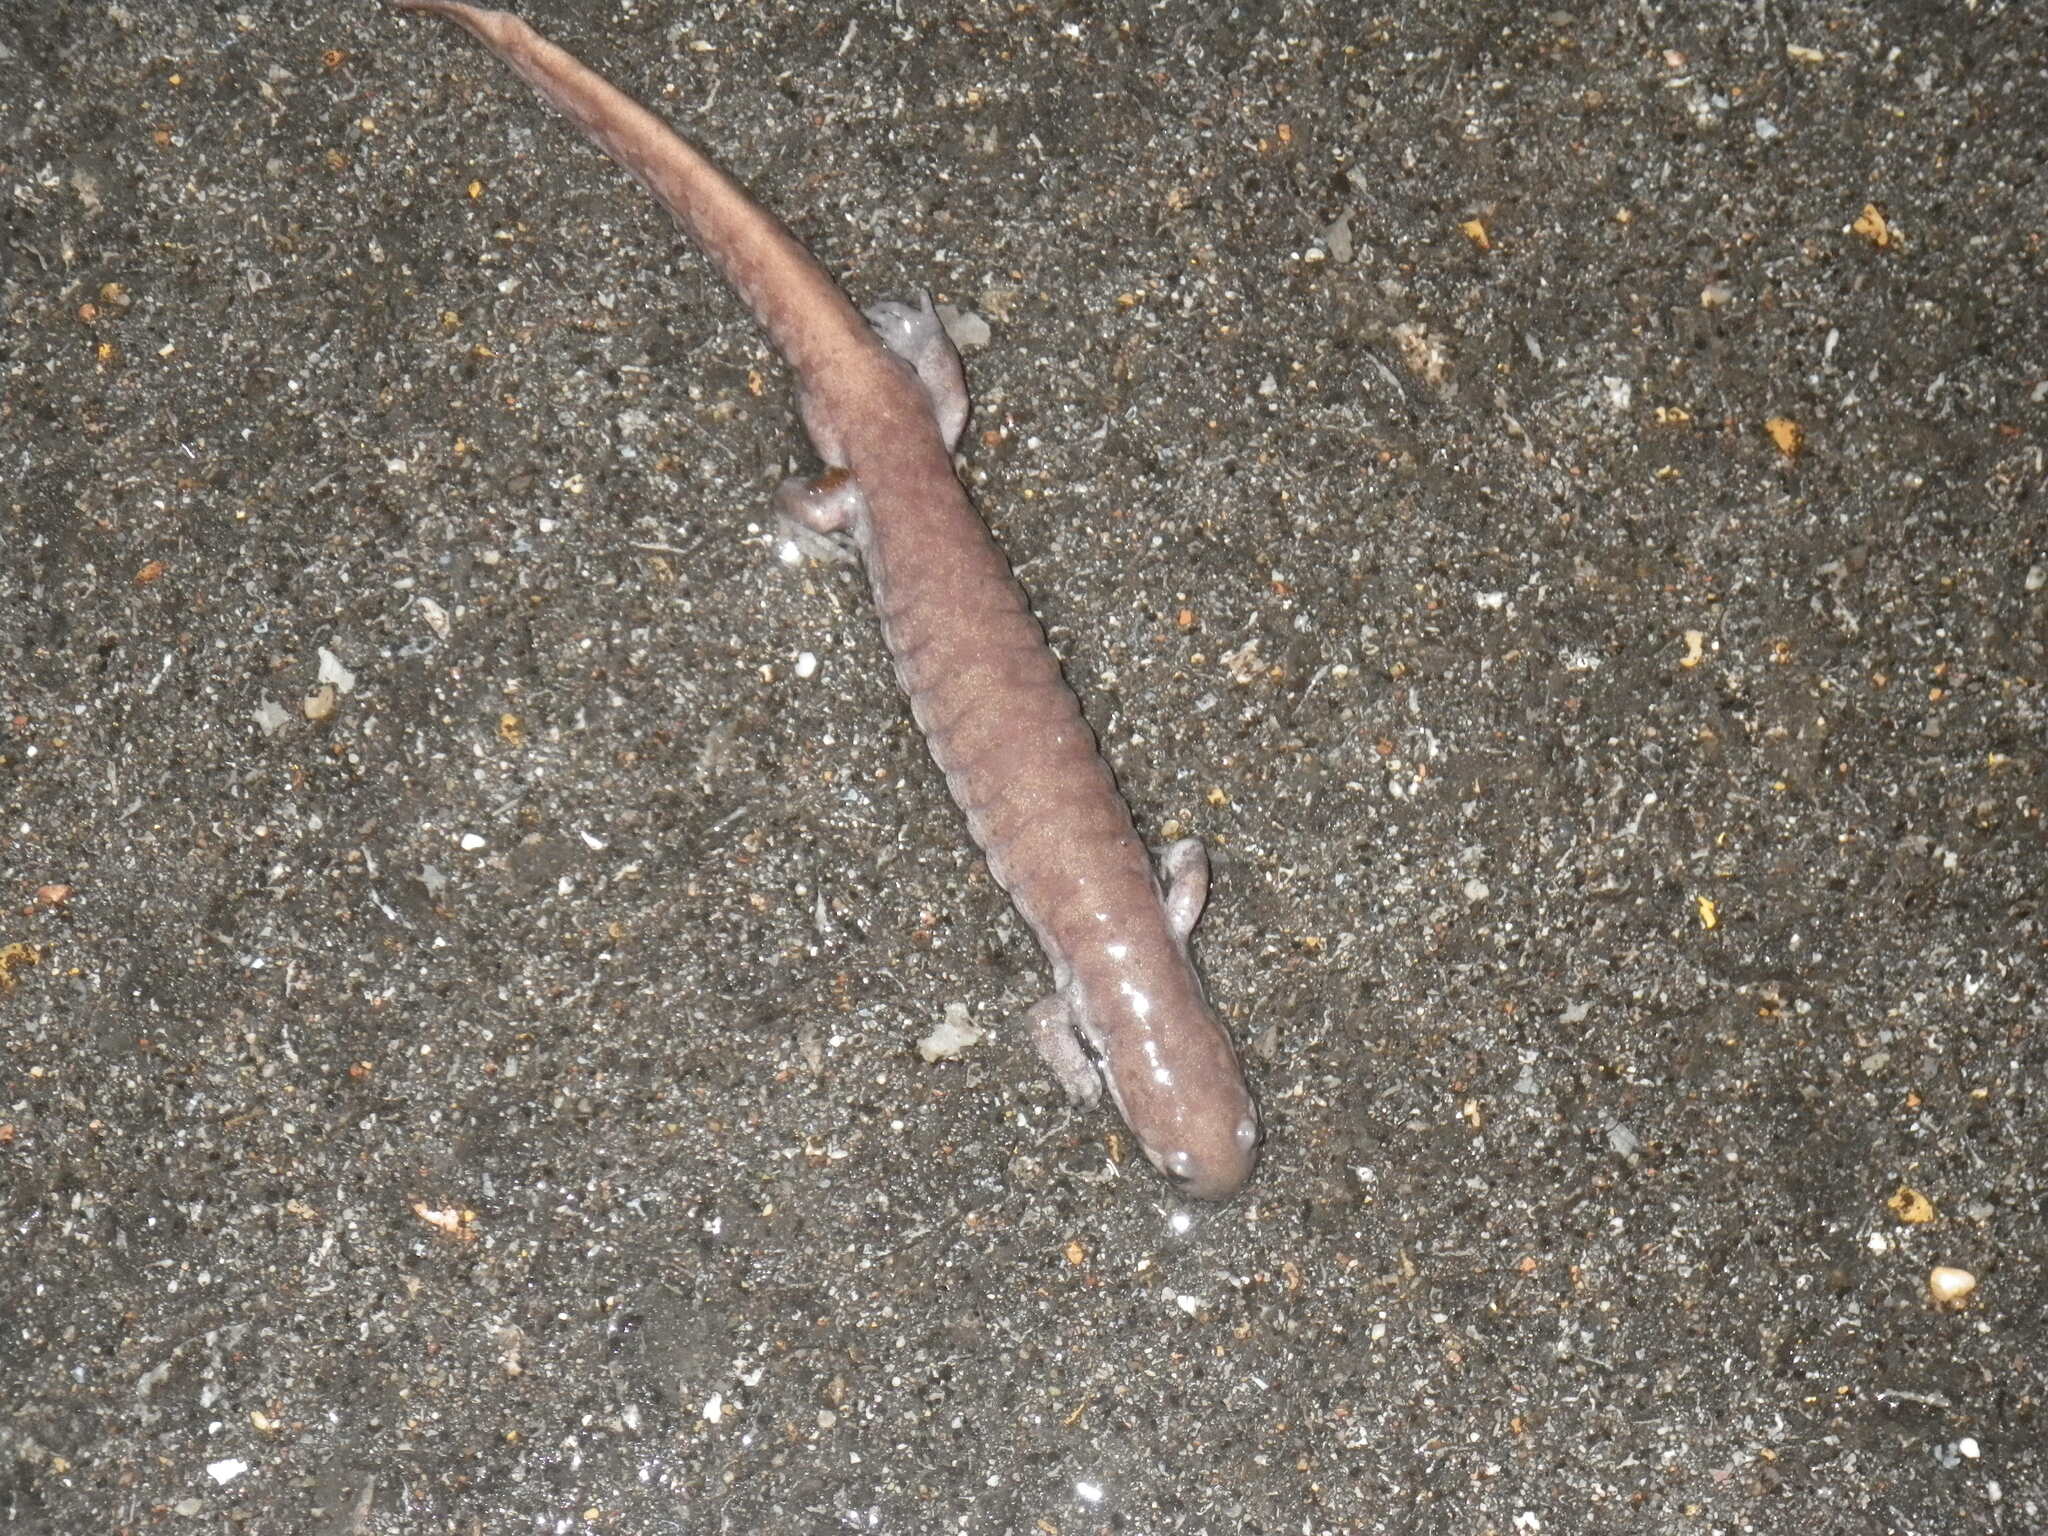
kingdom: Animalia
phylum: Chordata
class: Amphibia
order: Caudata
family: Ambystomatidae
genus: Ambystoma
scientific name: Ambystoma texanum
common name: Small-mouth salamander
